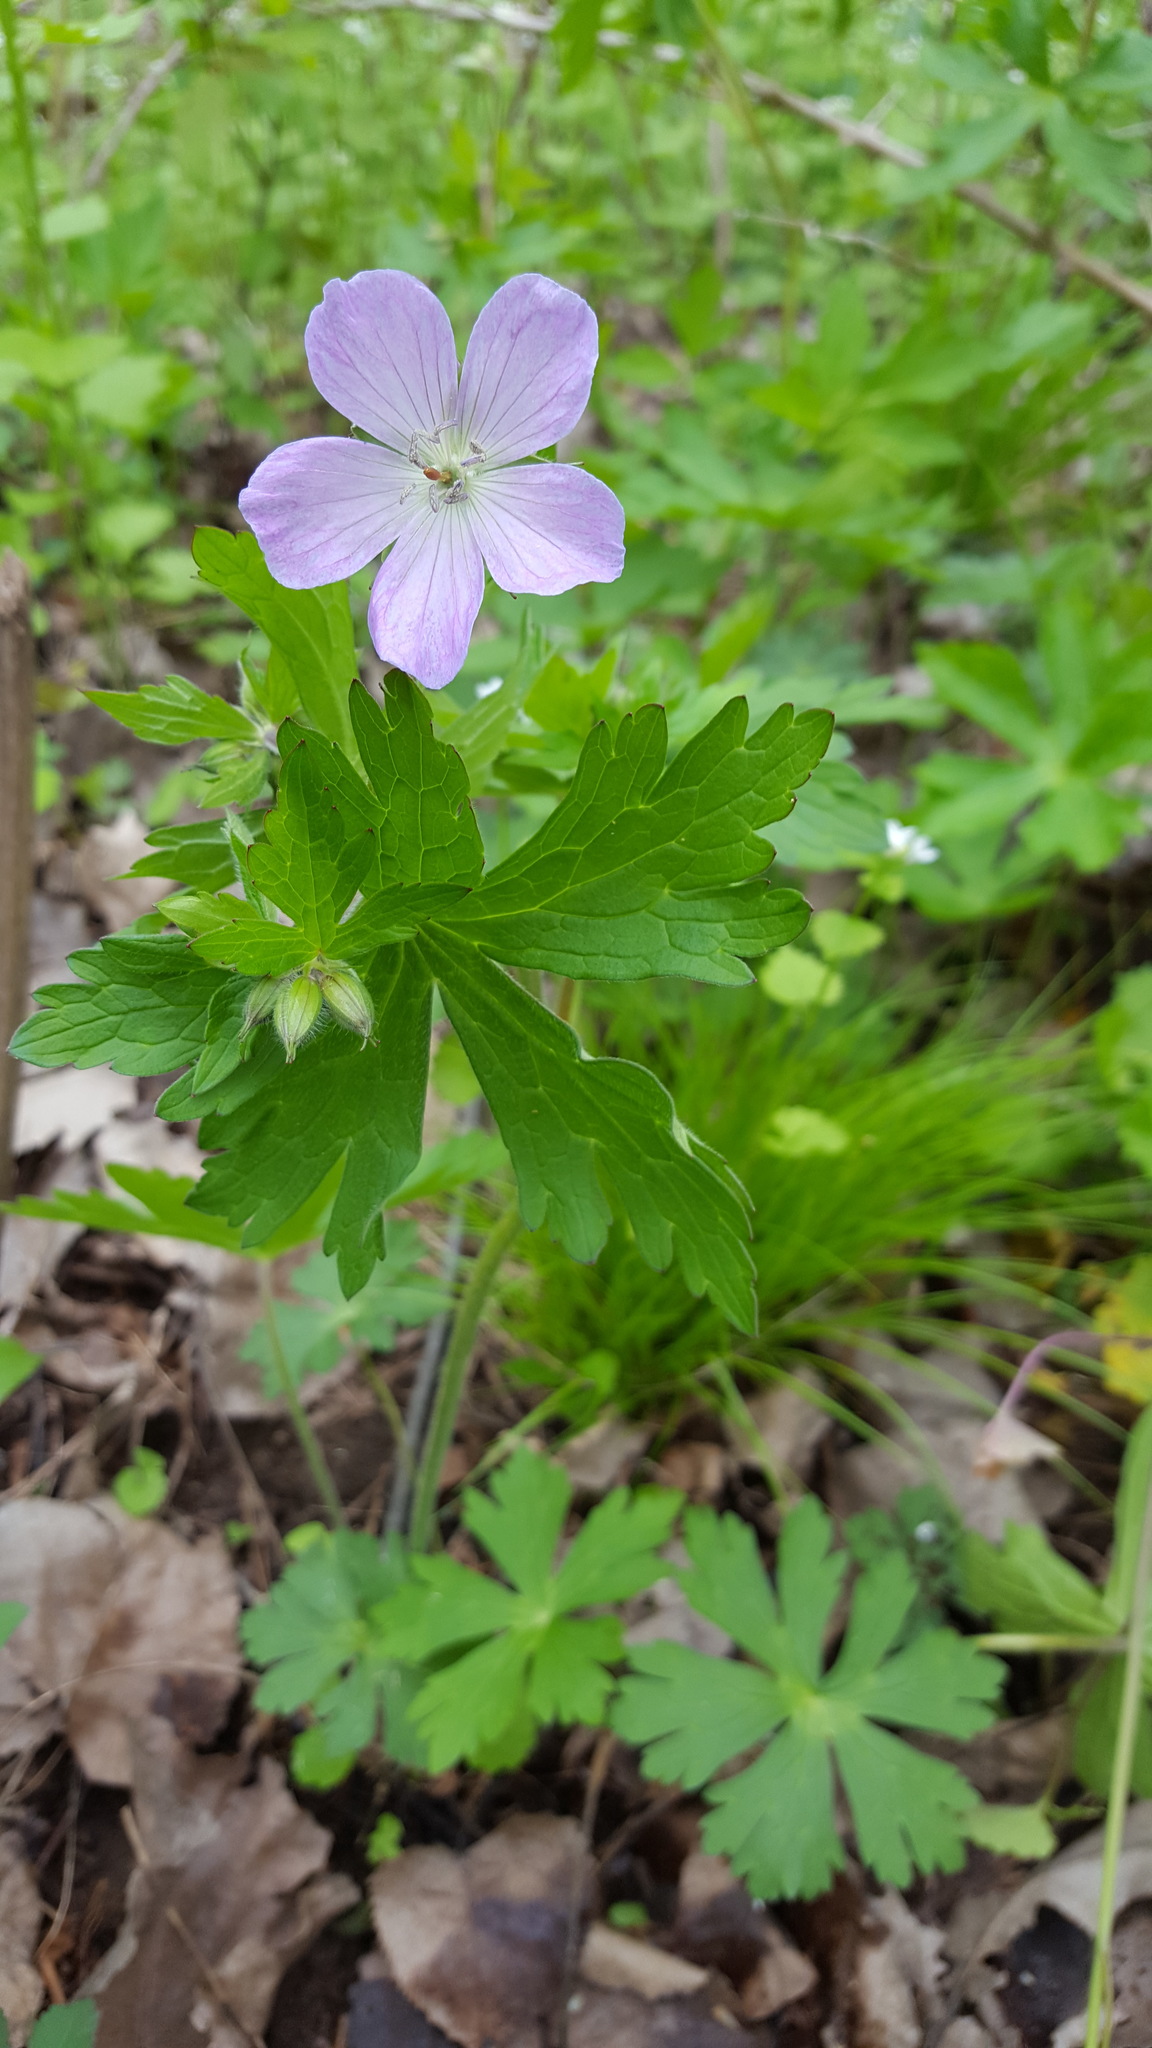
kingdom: Plantae
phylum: Tracheophyta
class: Magnoliopsida
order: Geraniales
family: Geraniaceae
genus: Geranium
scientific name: Geranium maculatum
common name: Spotted geranium
